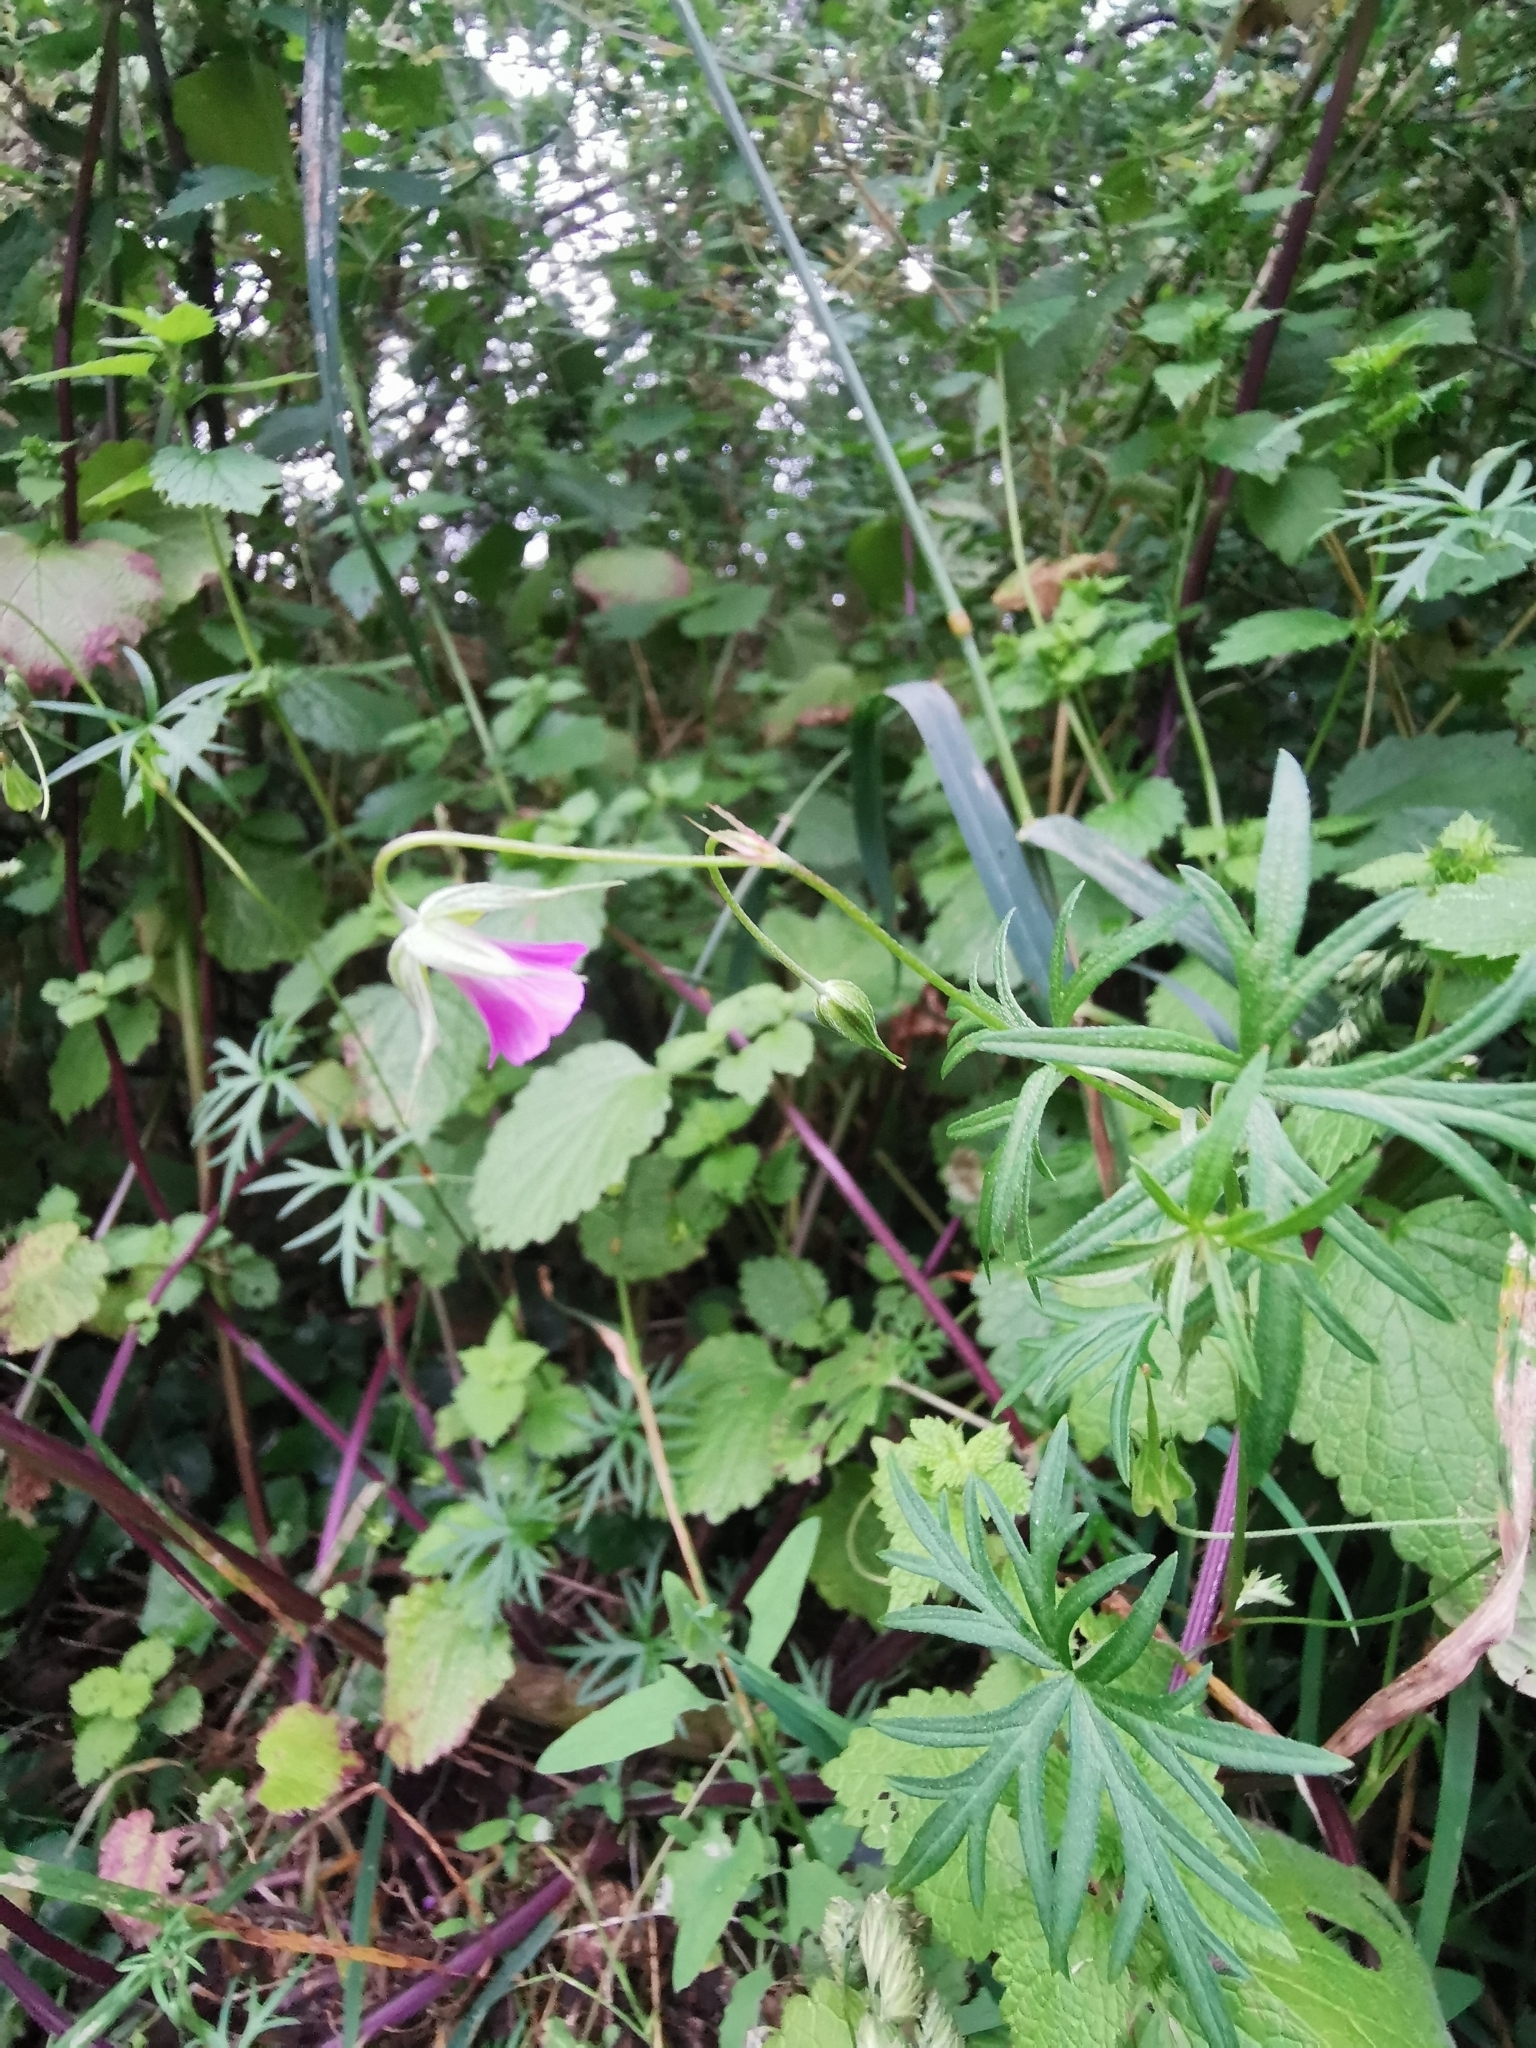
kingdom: Plantae
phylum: Tracheophyta
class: Magnoliopsida
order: Geraniales
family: Geraniaceae
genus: Geranium
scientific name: Geranium columbinum
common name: Long-stalked crane's-bill
